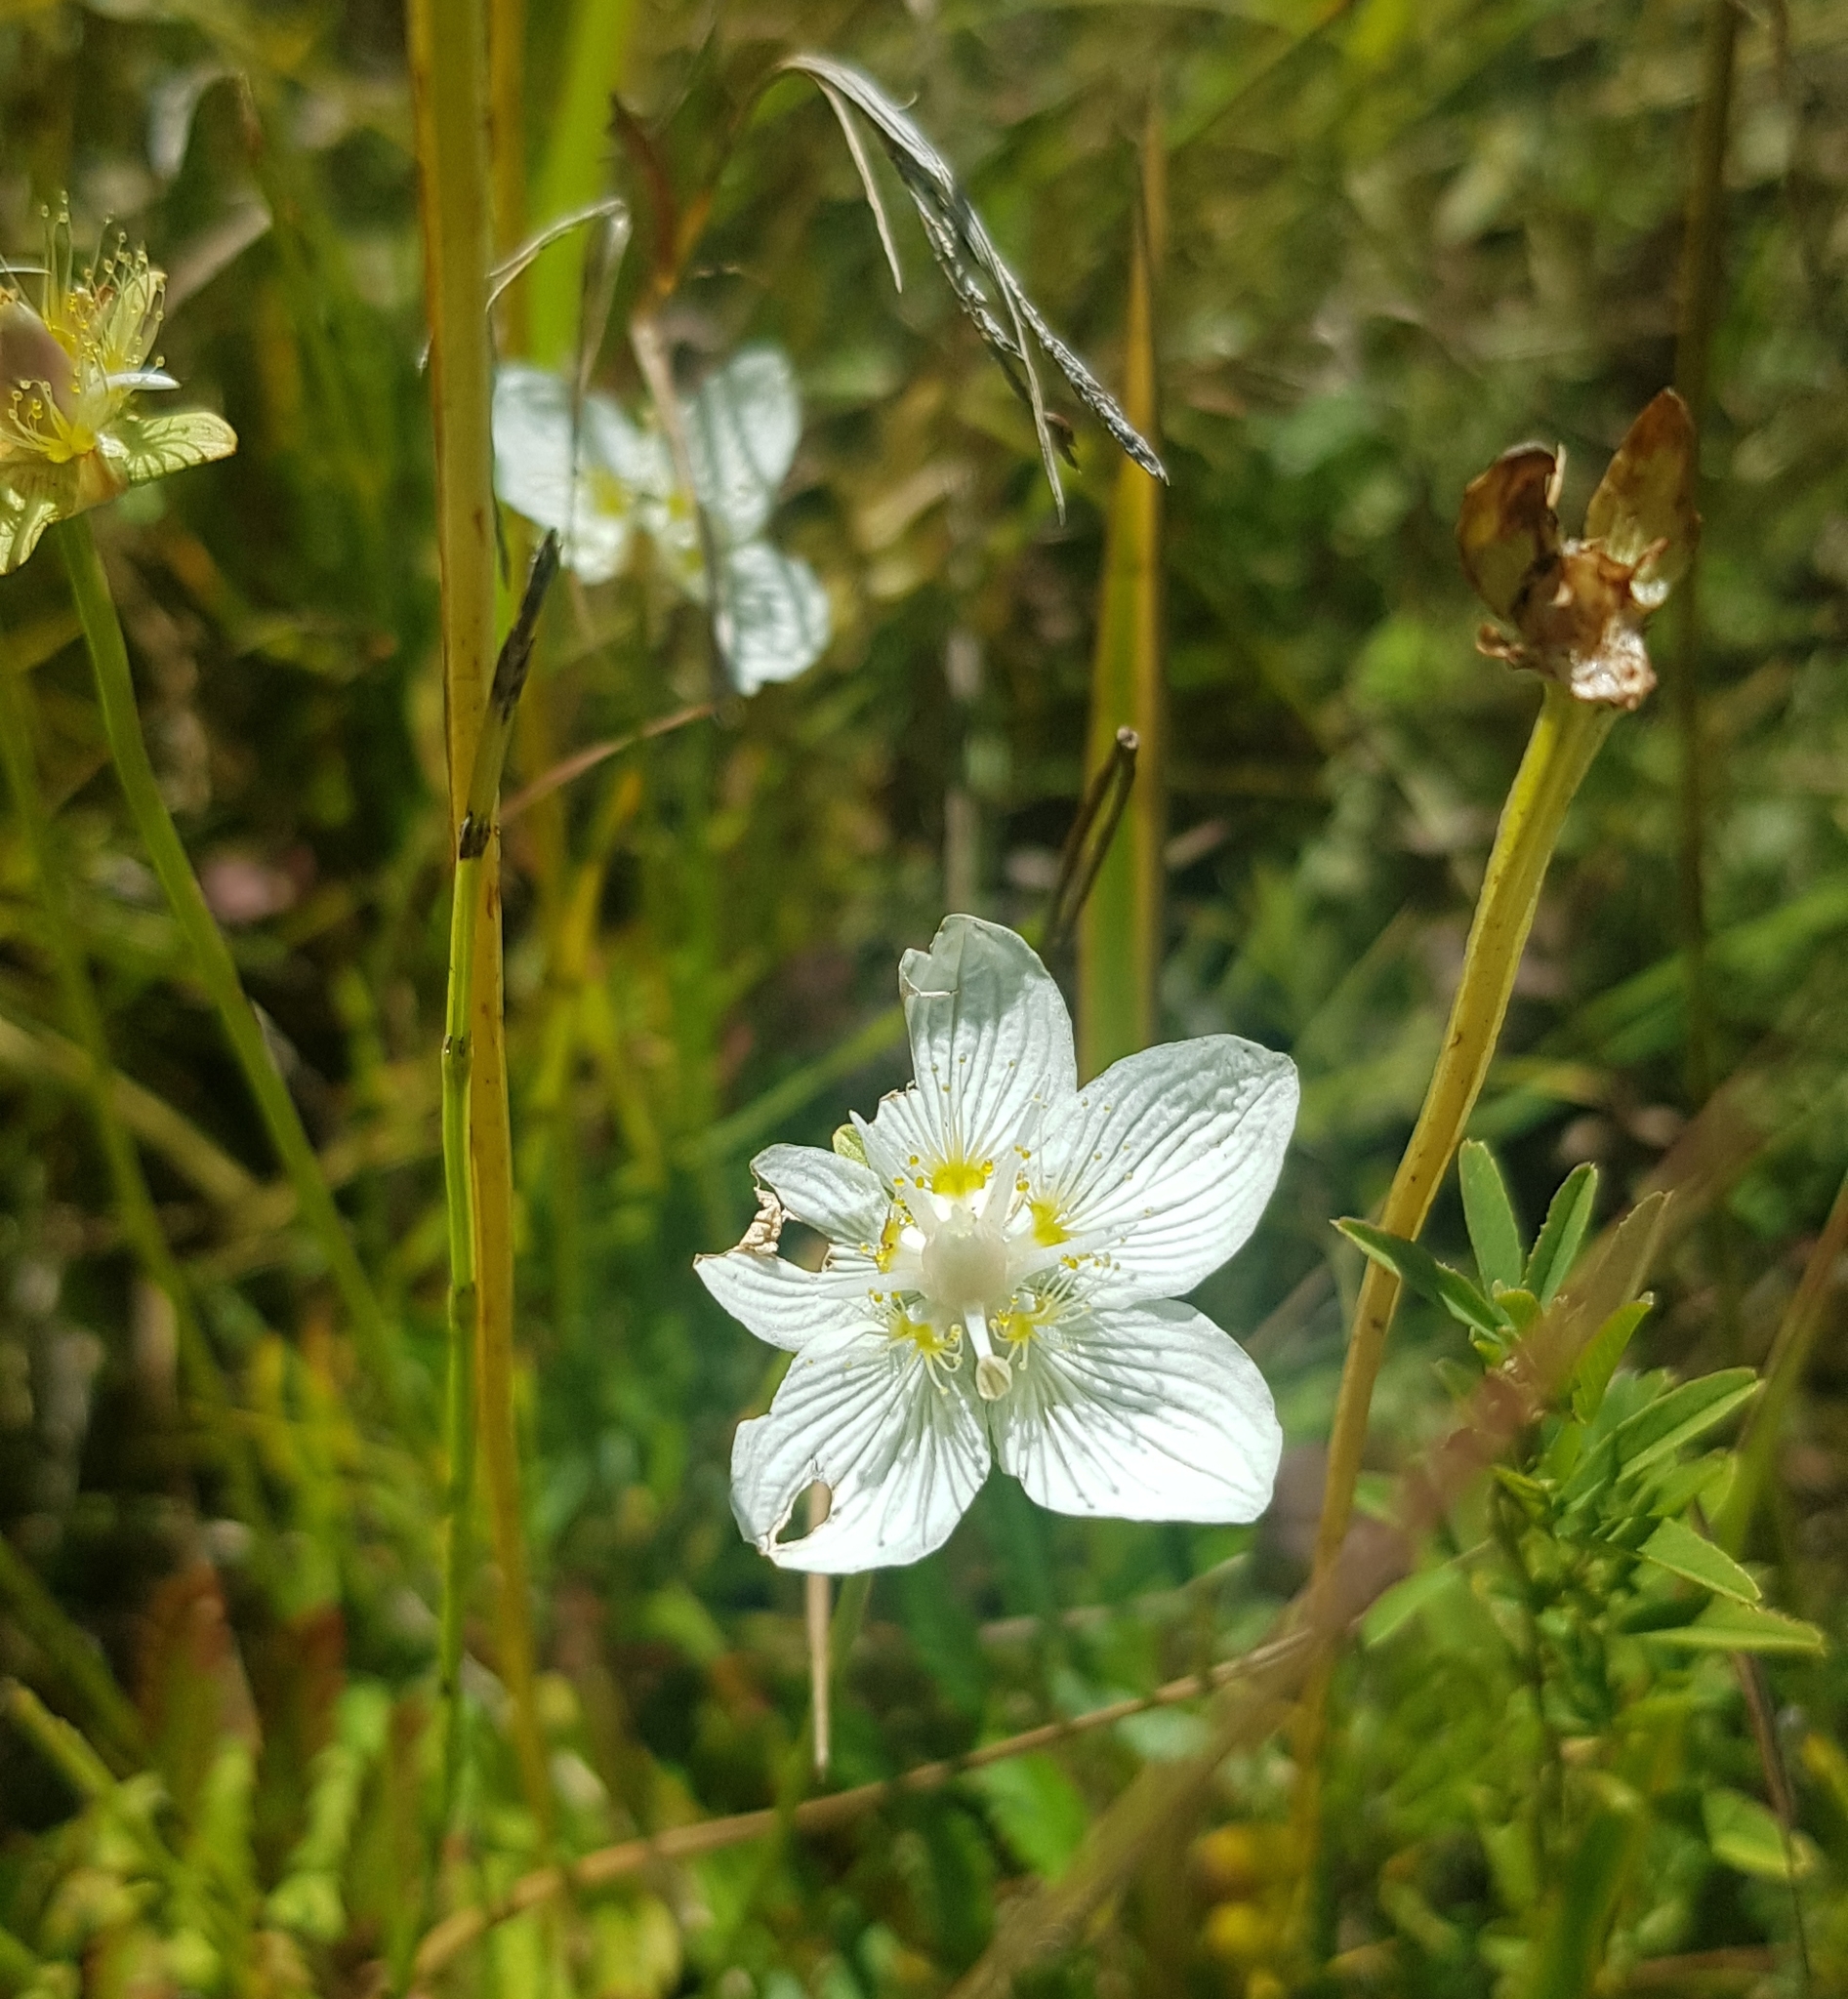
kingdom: Plantae
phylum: Tracheophyta
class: Magnoliopsida
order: Celastrales
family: Parnassiaceae
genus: Parnassia
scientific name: Parnassia palustris
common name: Grass-of-parnassus
